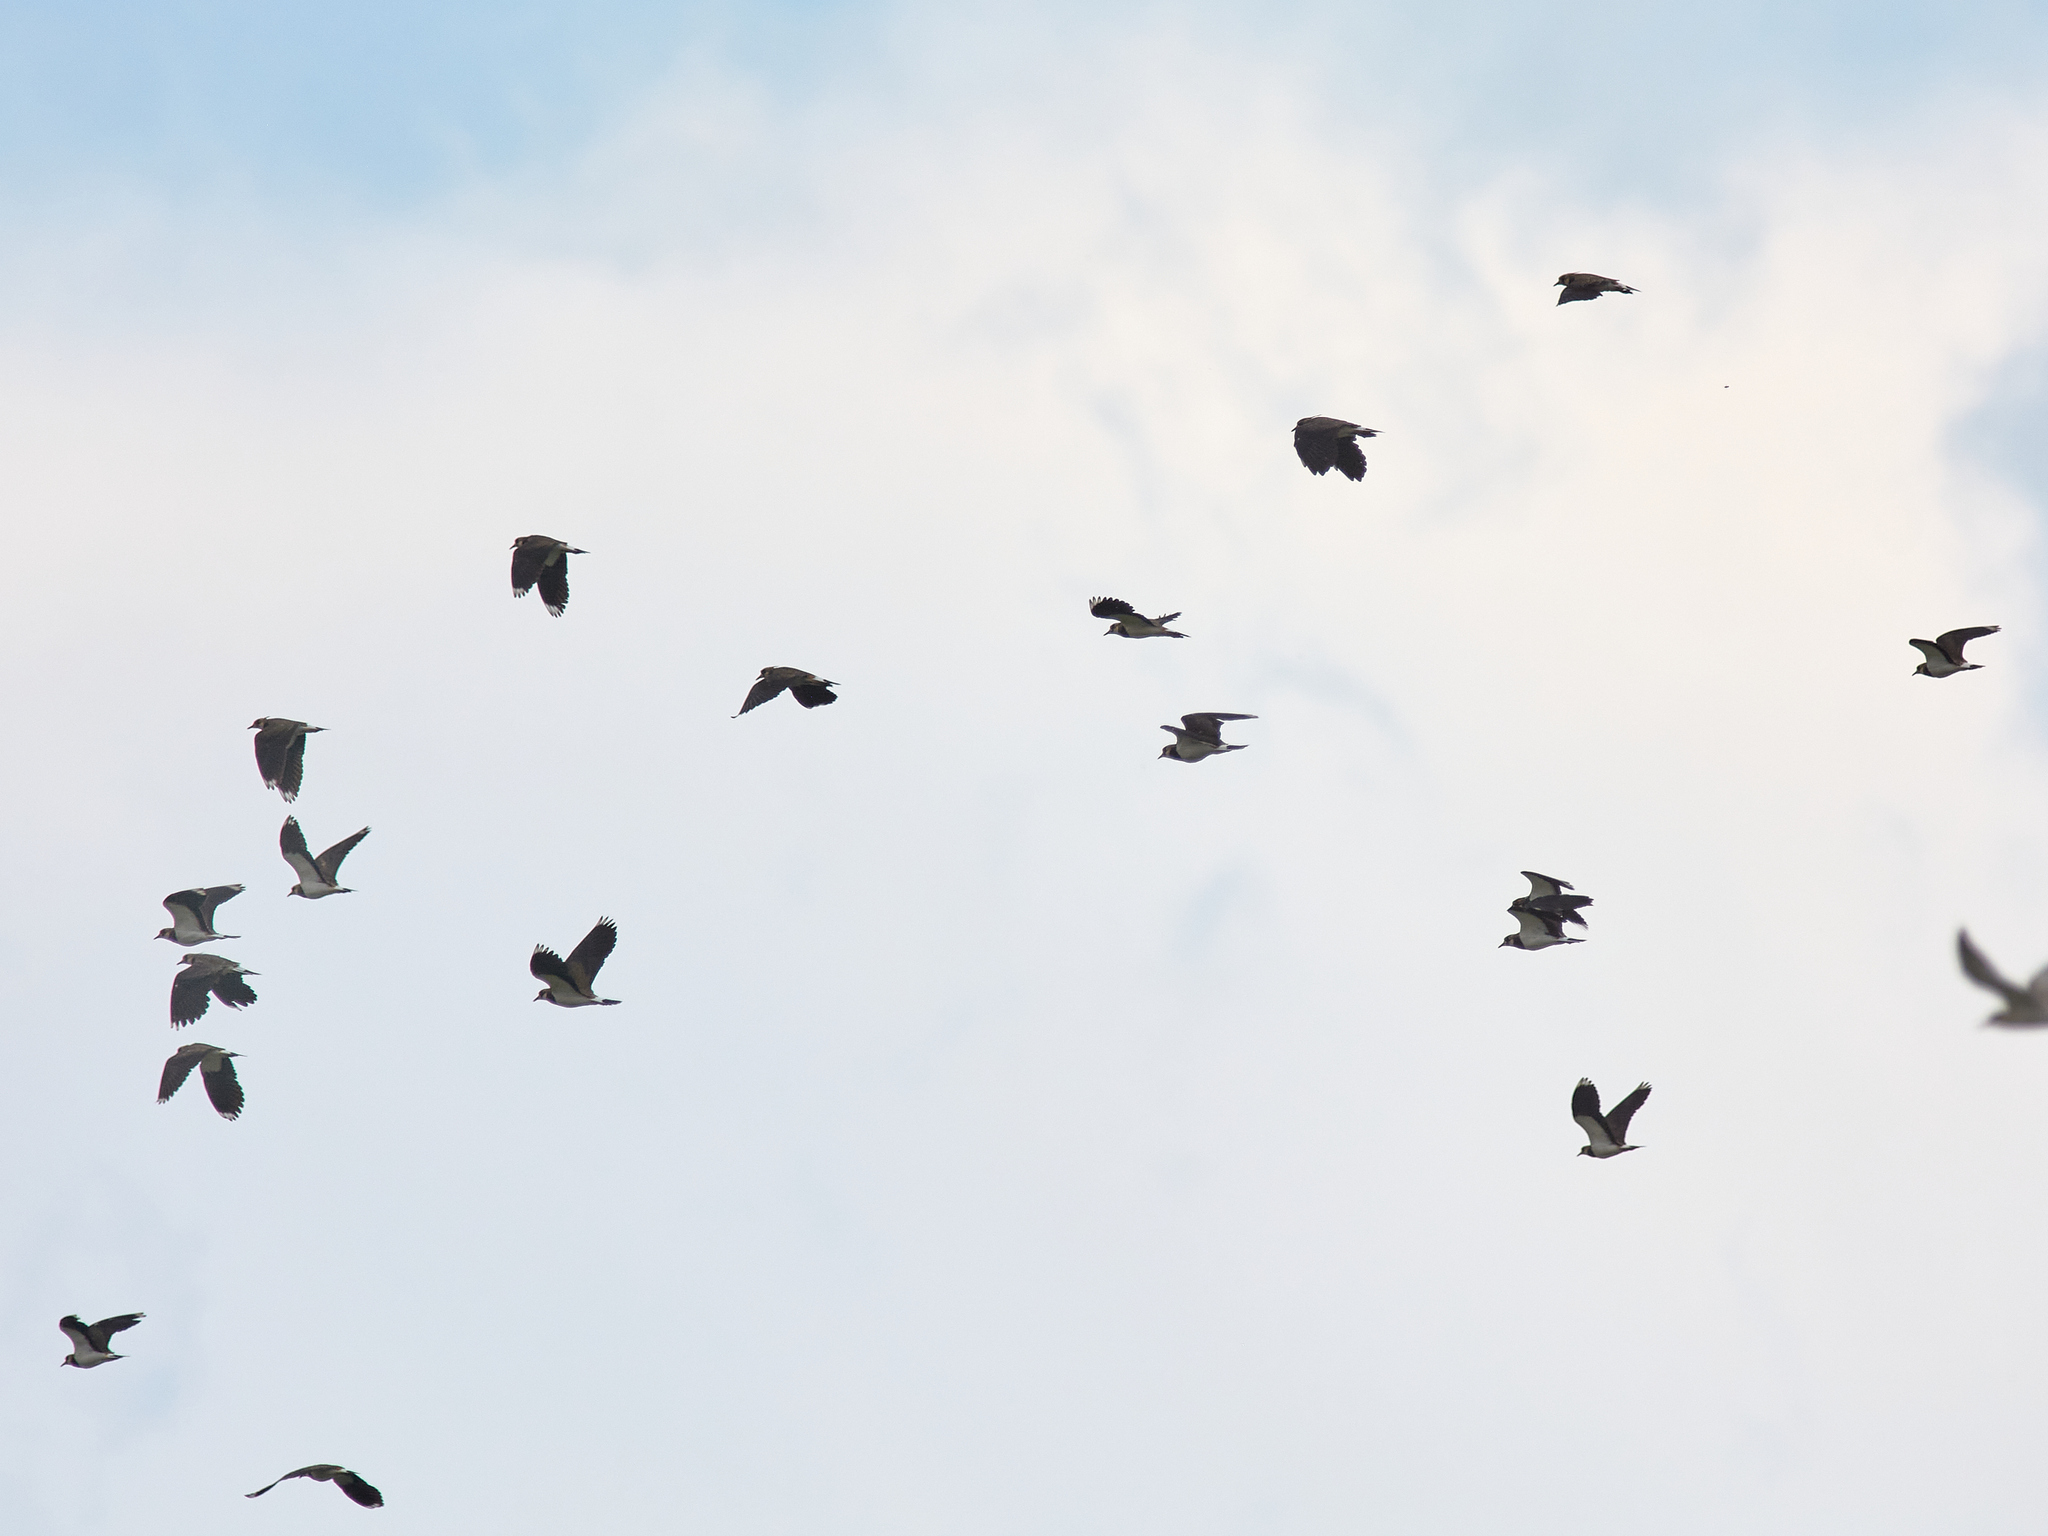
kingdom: Animalia
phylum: Chordata
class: Aves
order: Charadriiformes
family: Charadriidae
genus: Vanellus
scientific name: Vanellus vanellus
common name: Northern lapwing
